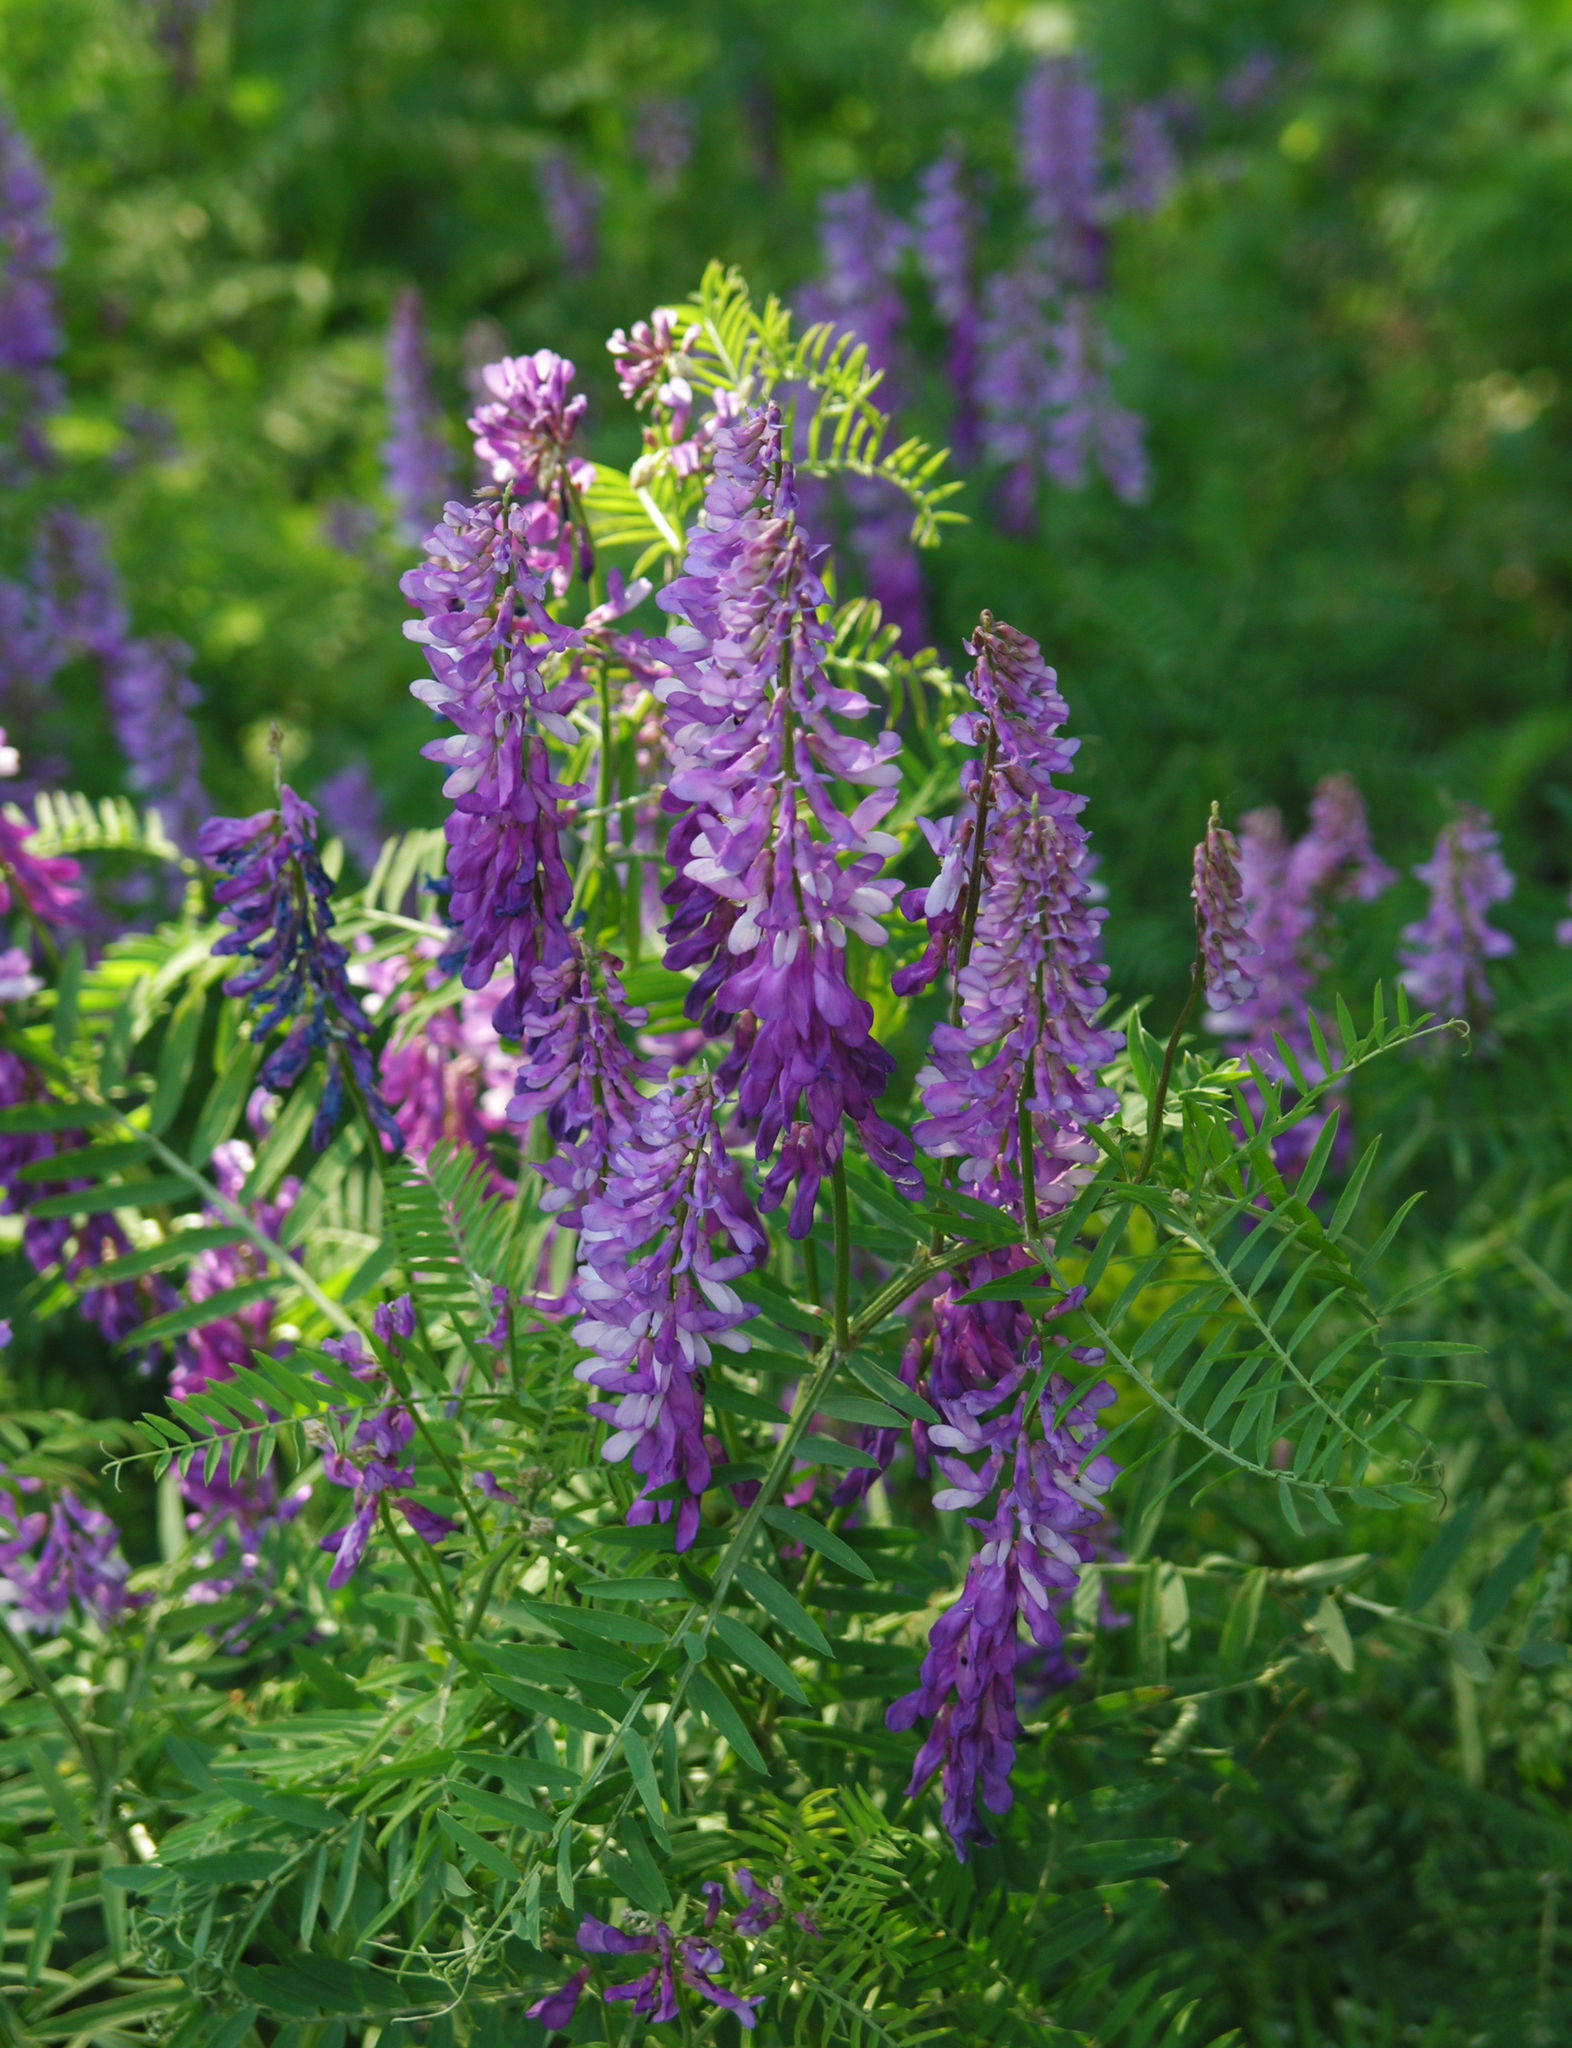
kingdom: Plantae
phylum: Tracheophyta
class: Magnoliopsida
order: Fabales
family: Fabaceae
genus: Vicia
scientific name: Vicia tenuifolia
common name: Fine-leaved vetch
